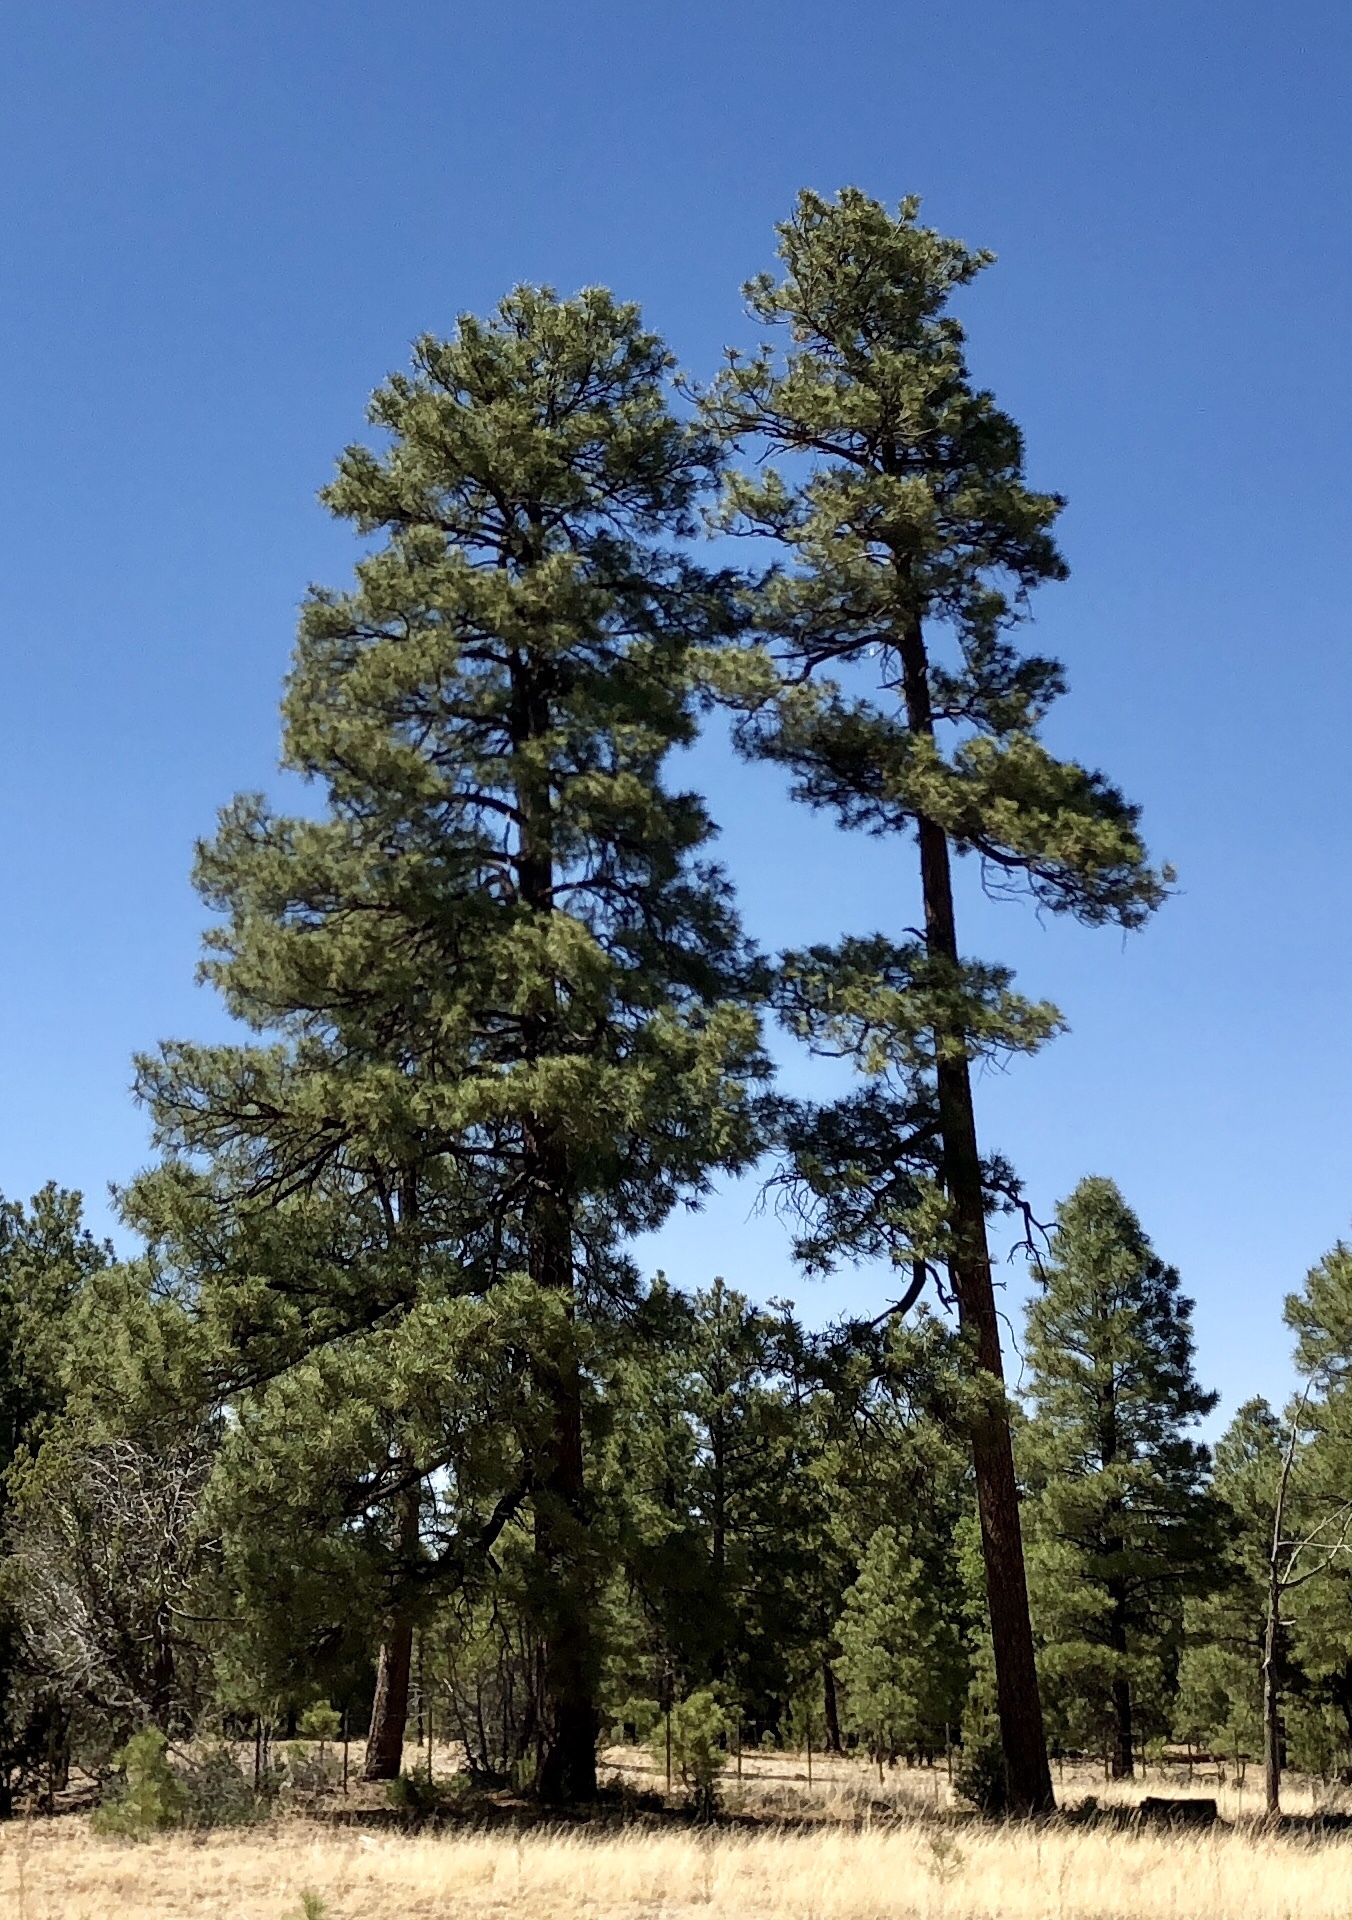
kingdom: Plantae
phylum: Tracheophyta
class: Pinopsida
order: Pinales
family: Pinaceae
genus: Pinus
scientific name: Pinus ponderosa
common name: Western yellow-pine
